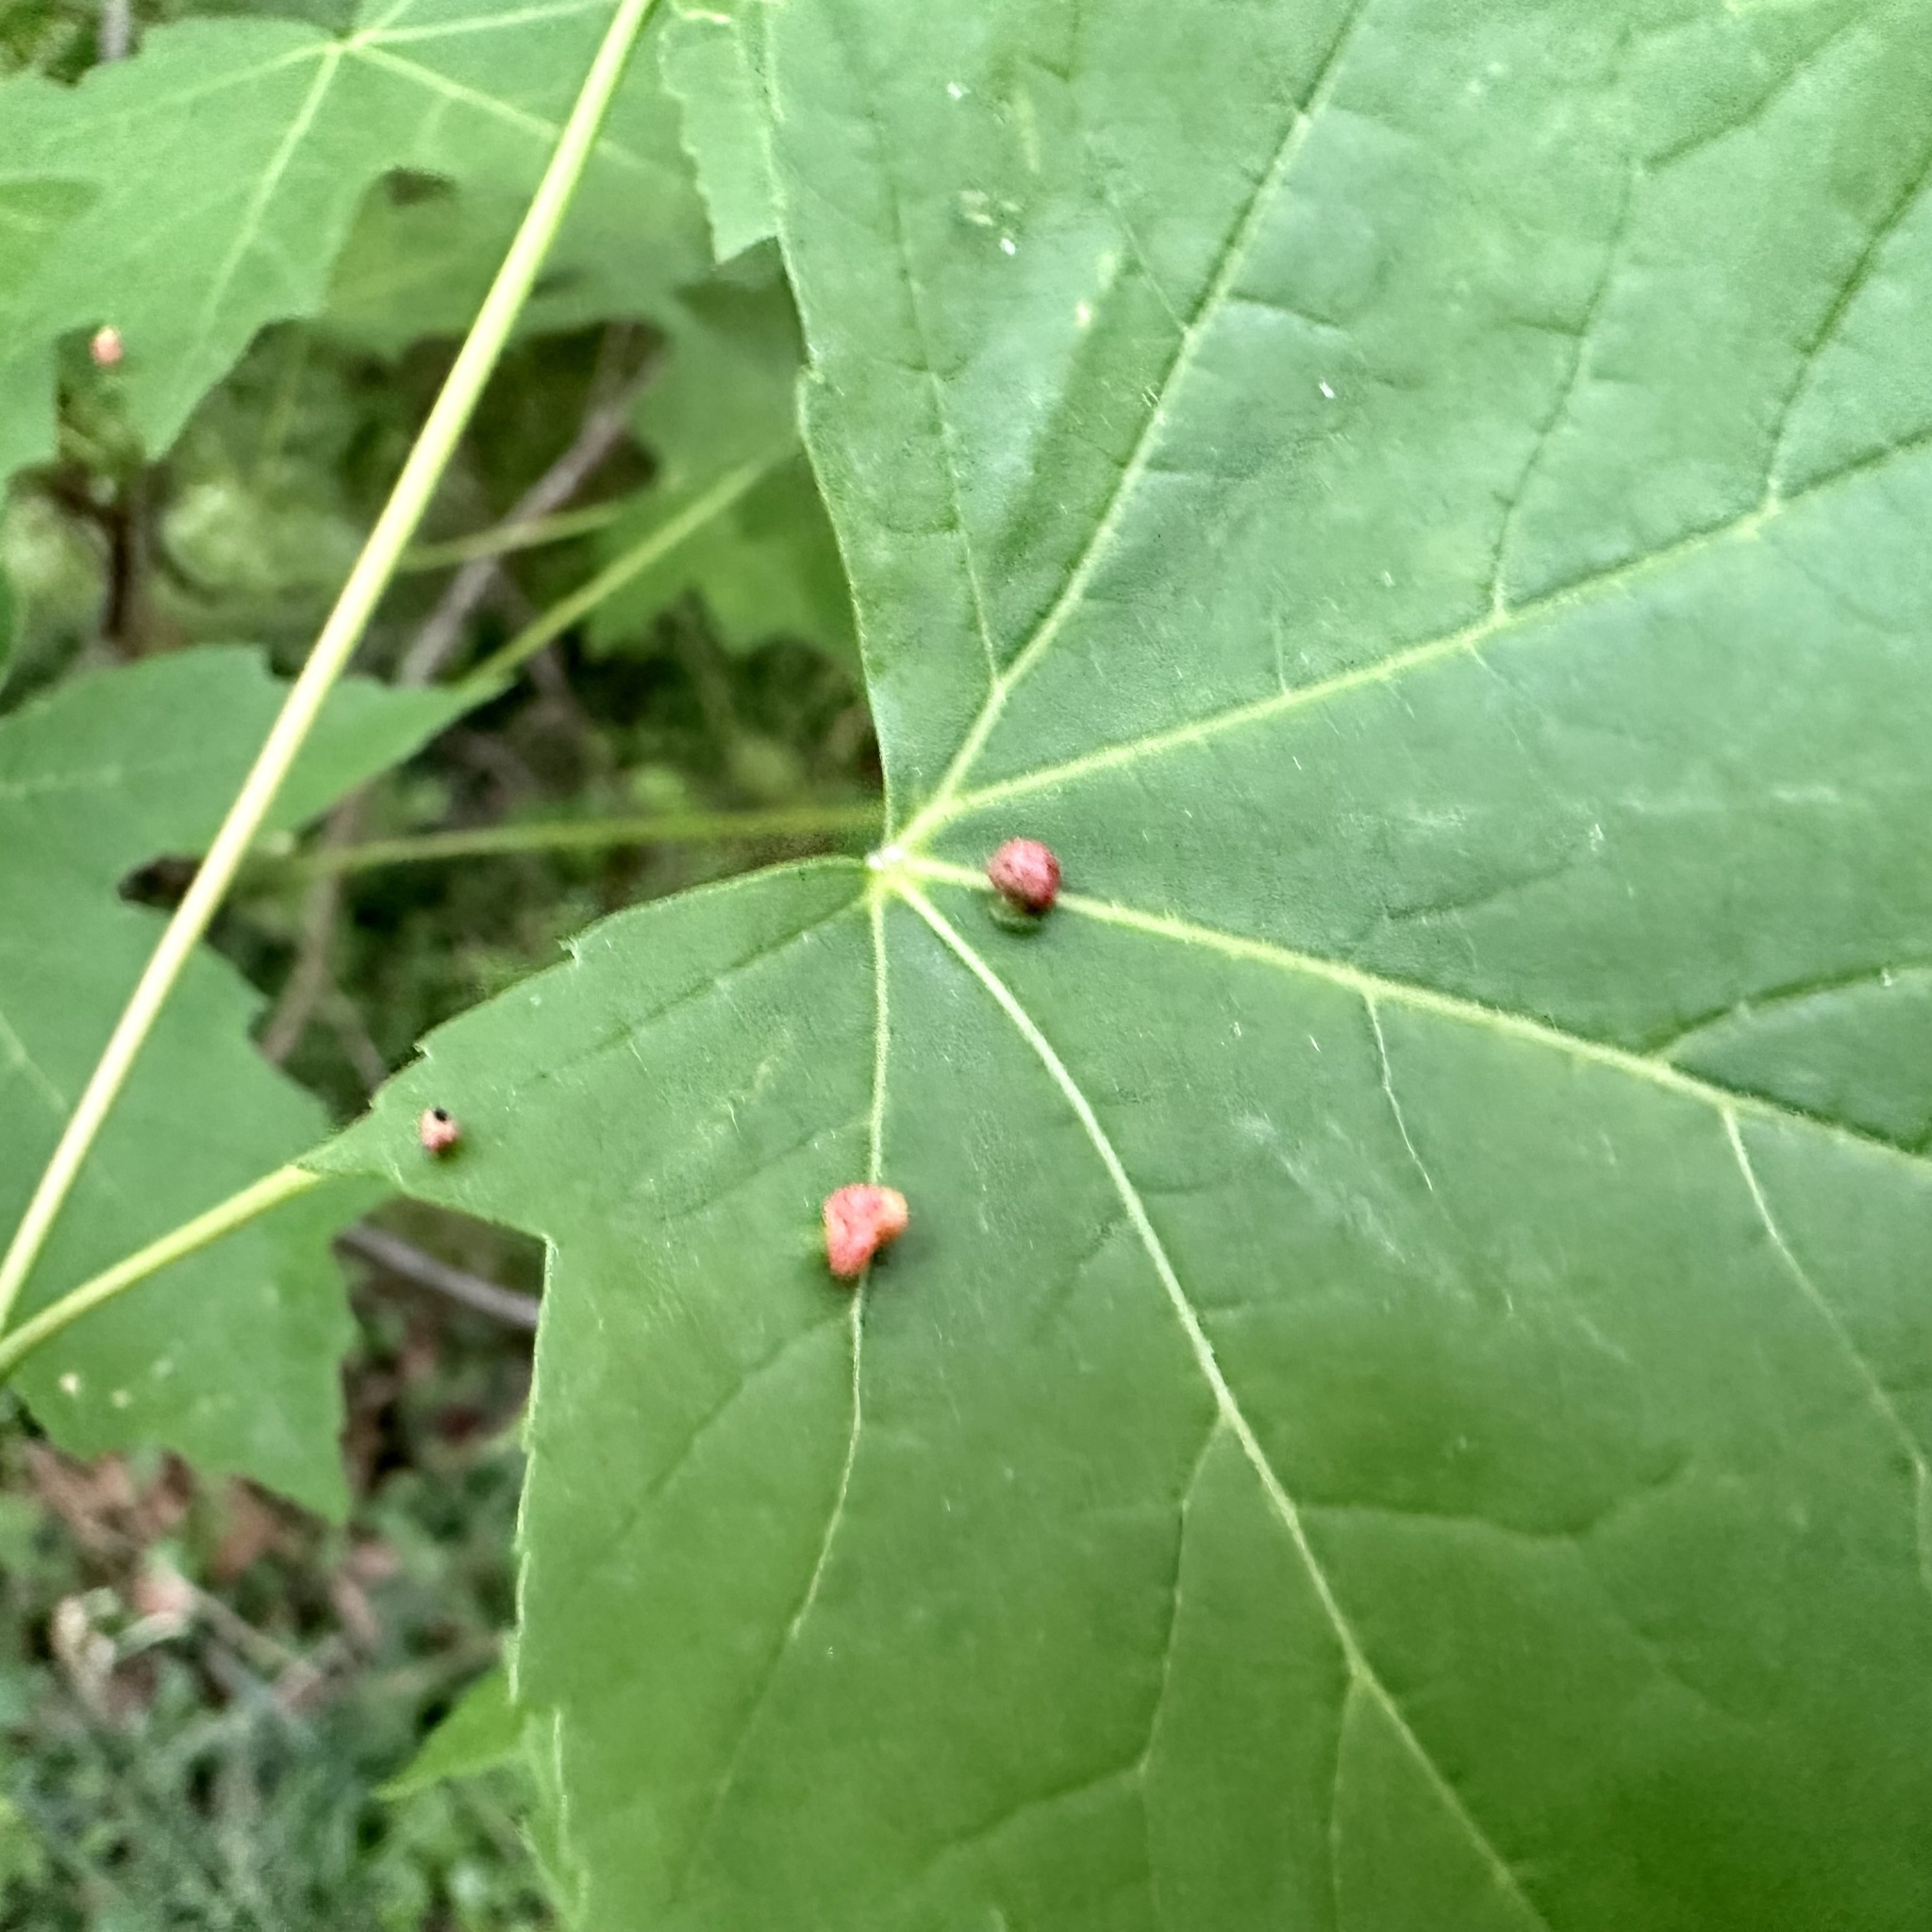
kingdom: Animalia
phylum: Arthropoda
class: Arachnida
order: Trombidiformes
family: Eriophyidae
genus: Vasates
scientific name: Vasates quadripedes
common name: Maple bladder gall mite
